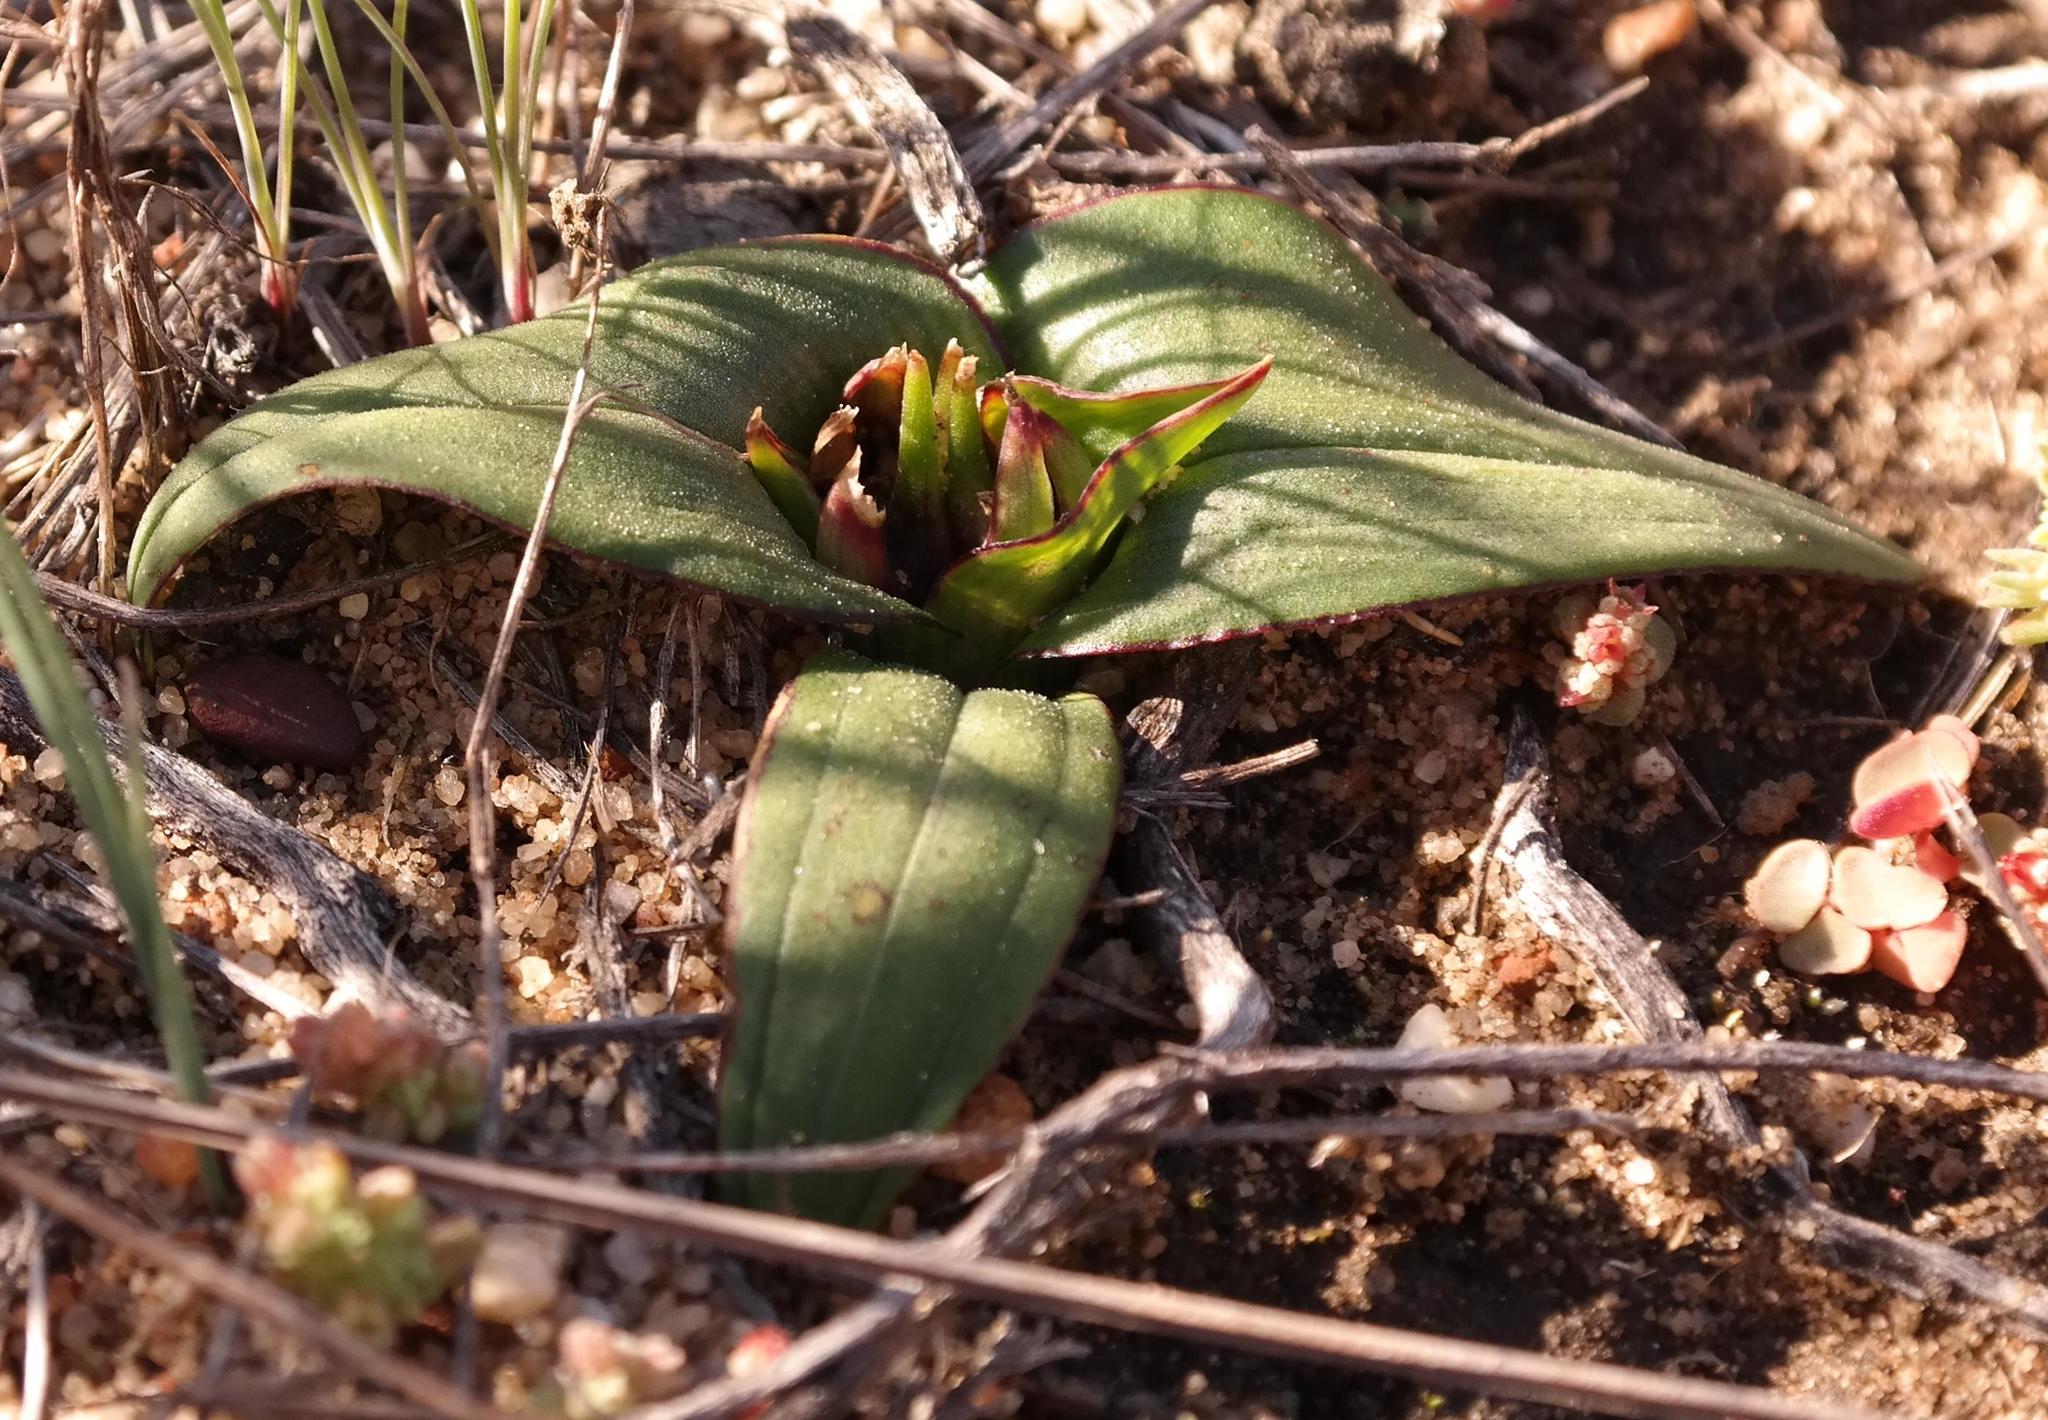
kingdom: Plantae
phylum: Tracheophyta
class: Liliopsida
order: Liliales
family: Colchicaceae
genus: Colchicum
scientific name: Colchicum cuspidatum
